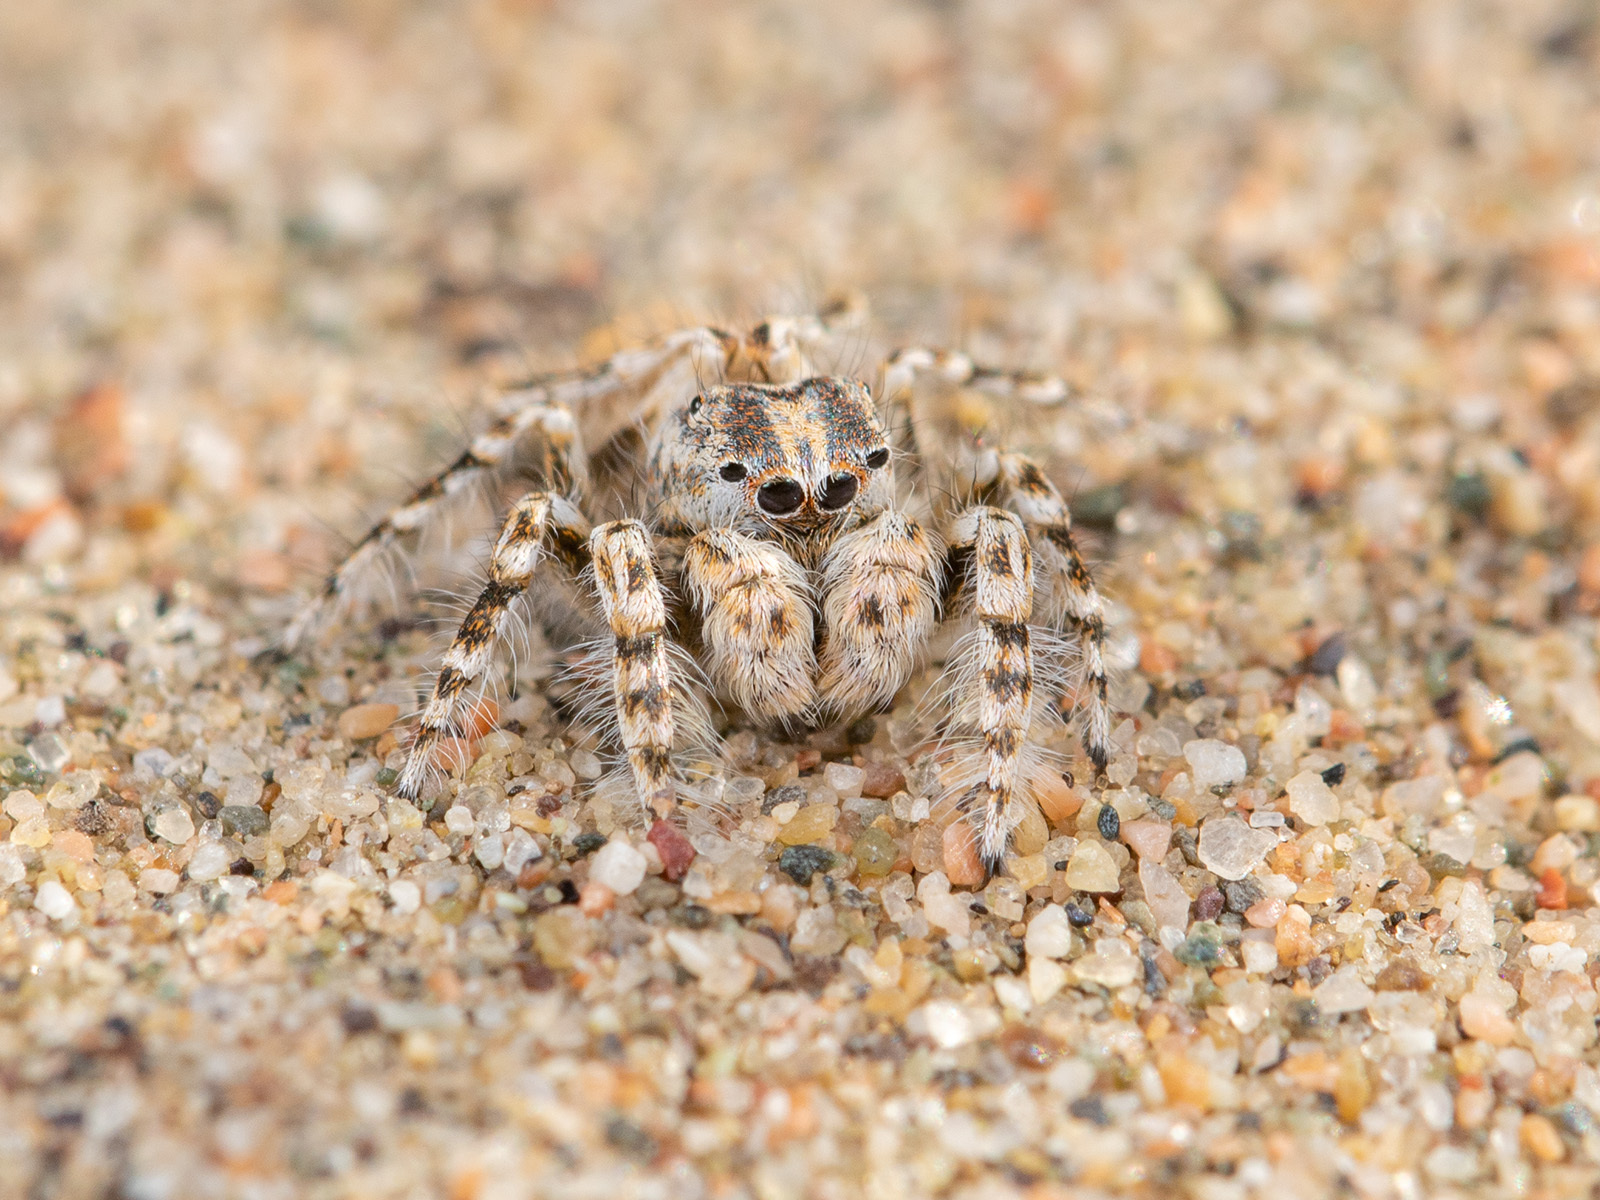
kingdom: Animalia
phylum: Arthropoda
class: Arachnida
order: Araneae
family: Salticidae
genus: Yllenus
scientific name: Yllenus turkestanicus
